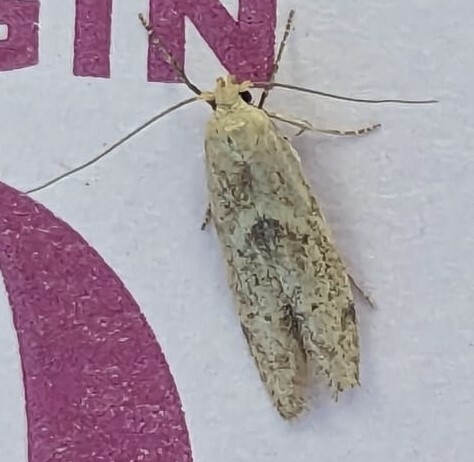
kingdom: Animalia
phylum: Arthropoda
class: Insecta
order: Lepidoptera
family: Blastobasidae
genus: Blastobasis
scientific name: Blastobasis lacticolella
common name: London dowd
